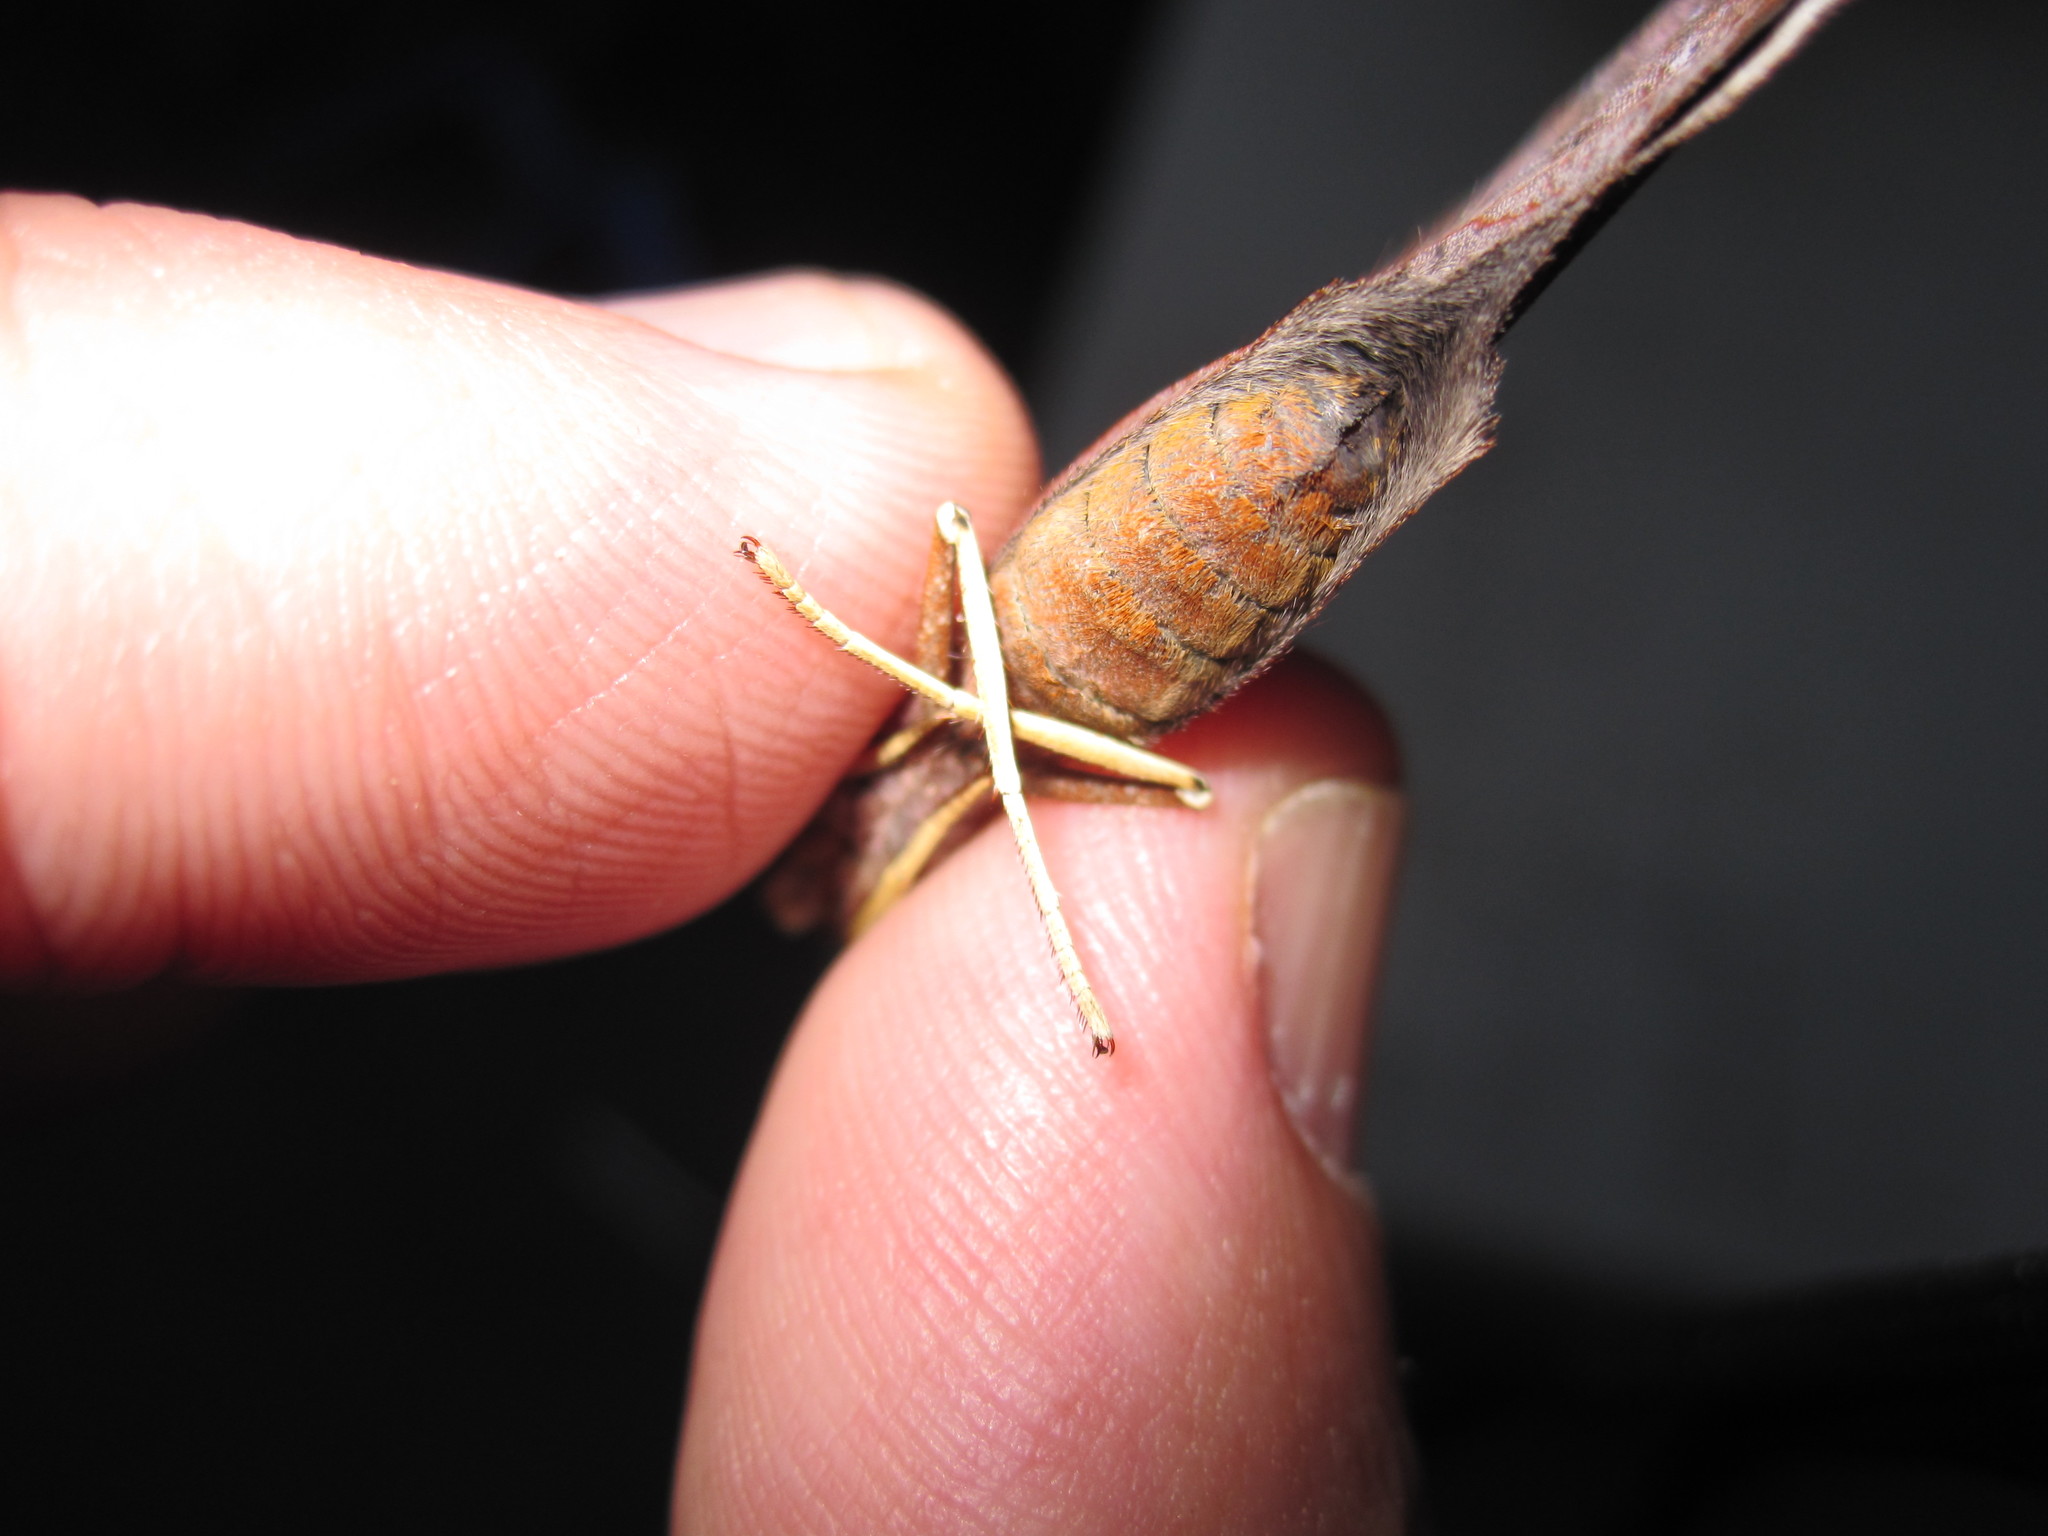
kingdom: Animalia
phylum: Arthropoda
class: Insecta
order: Lepidoptera
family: Nymphalidae
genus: Polygonia
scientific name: Polygonia interrogationis
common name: Question mark
